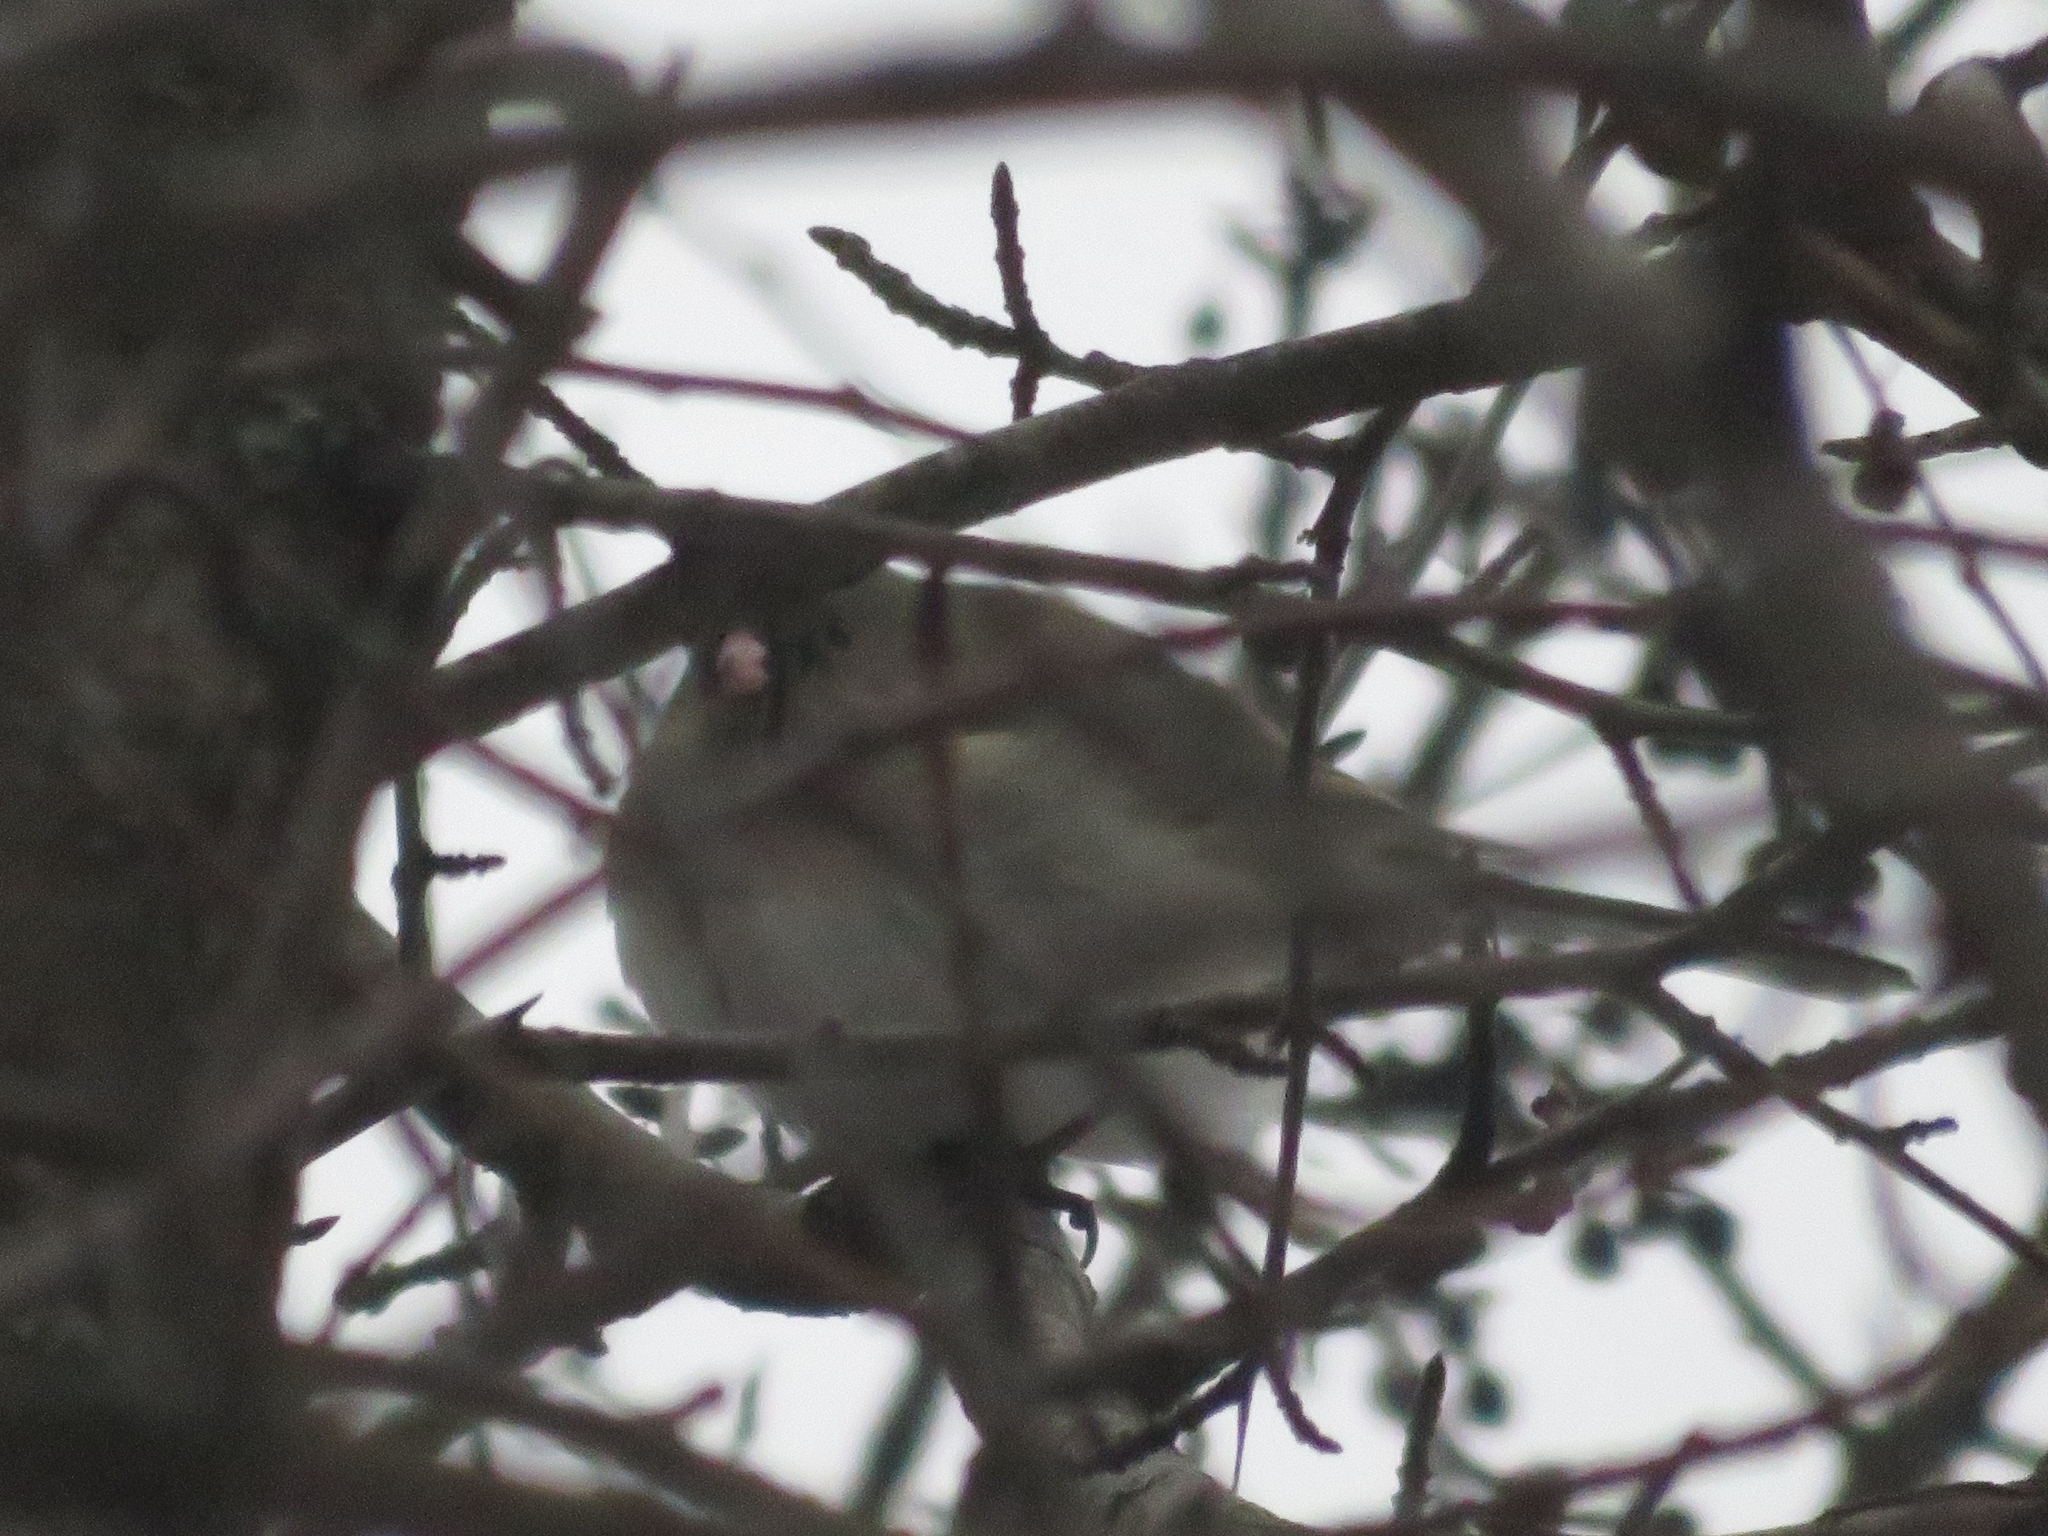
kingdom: Animalia
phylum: Chordata
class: Aves
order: Passeriformes
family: Passerellidae
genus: Junco
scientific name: Junco hyemalis
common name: Dark-eyed junco
